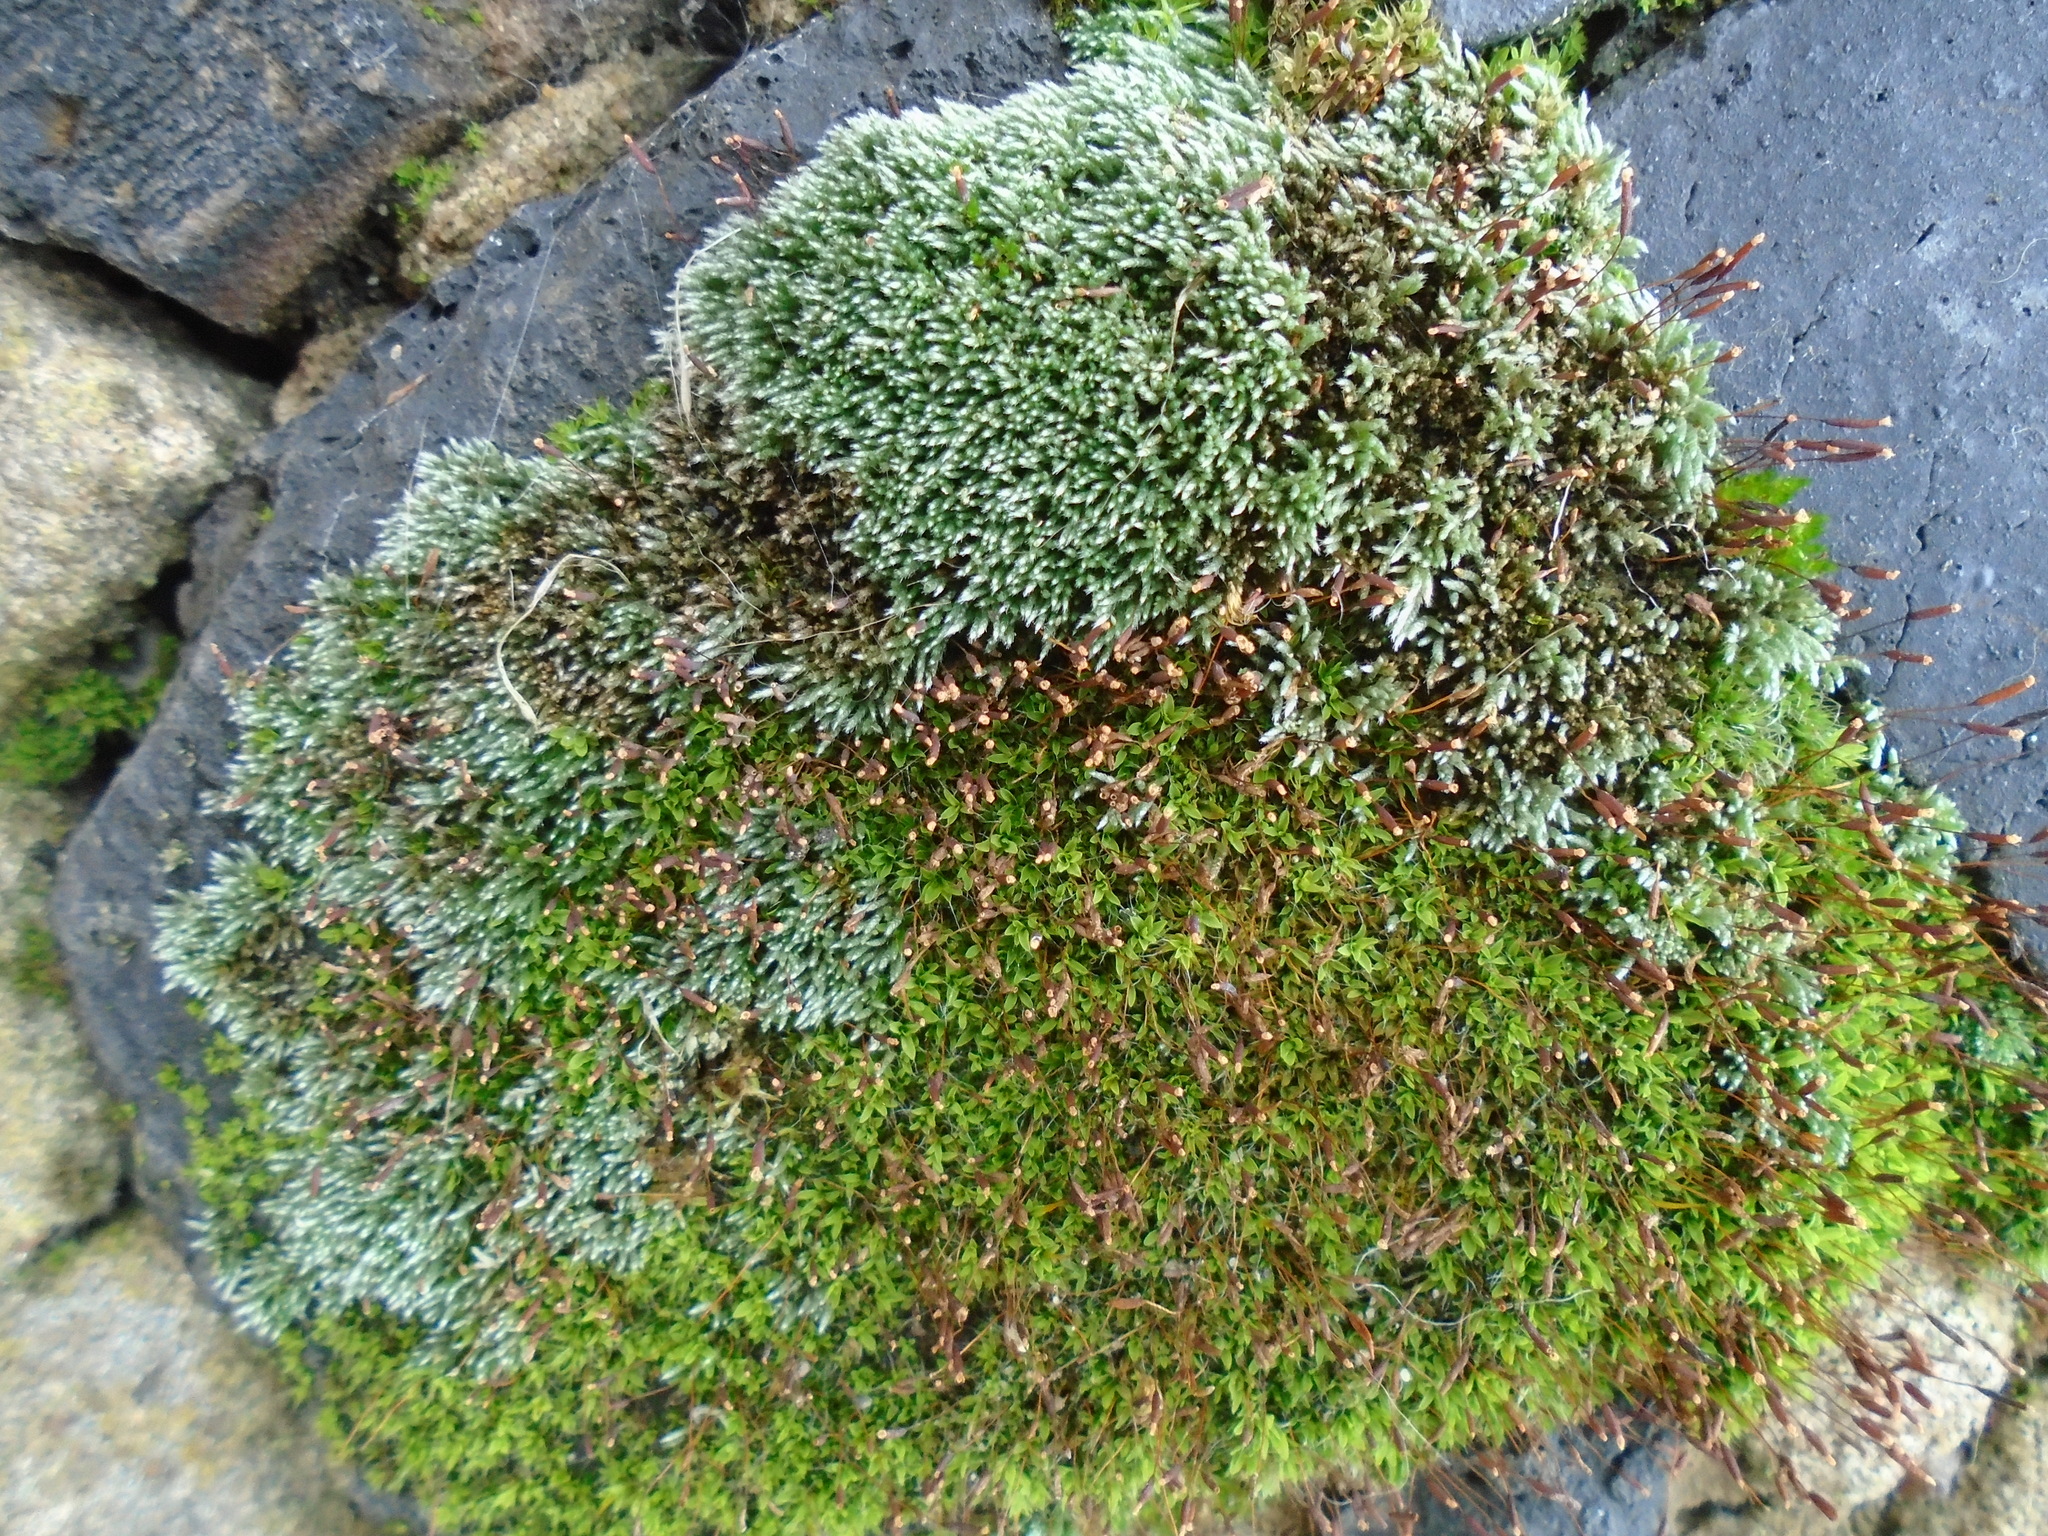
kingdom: Plantae
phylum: Bryophyta
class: Bryopsida
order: Bryales
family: Bryaceae
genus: Bryum
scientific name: Bryum argenteum
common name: Silver-moss
